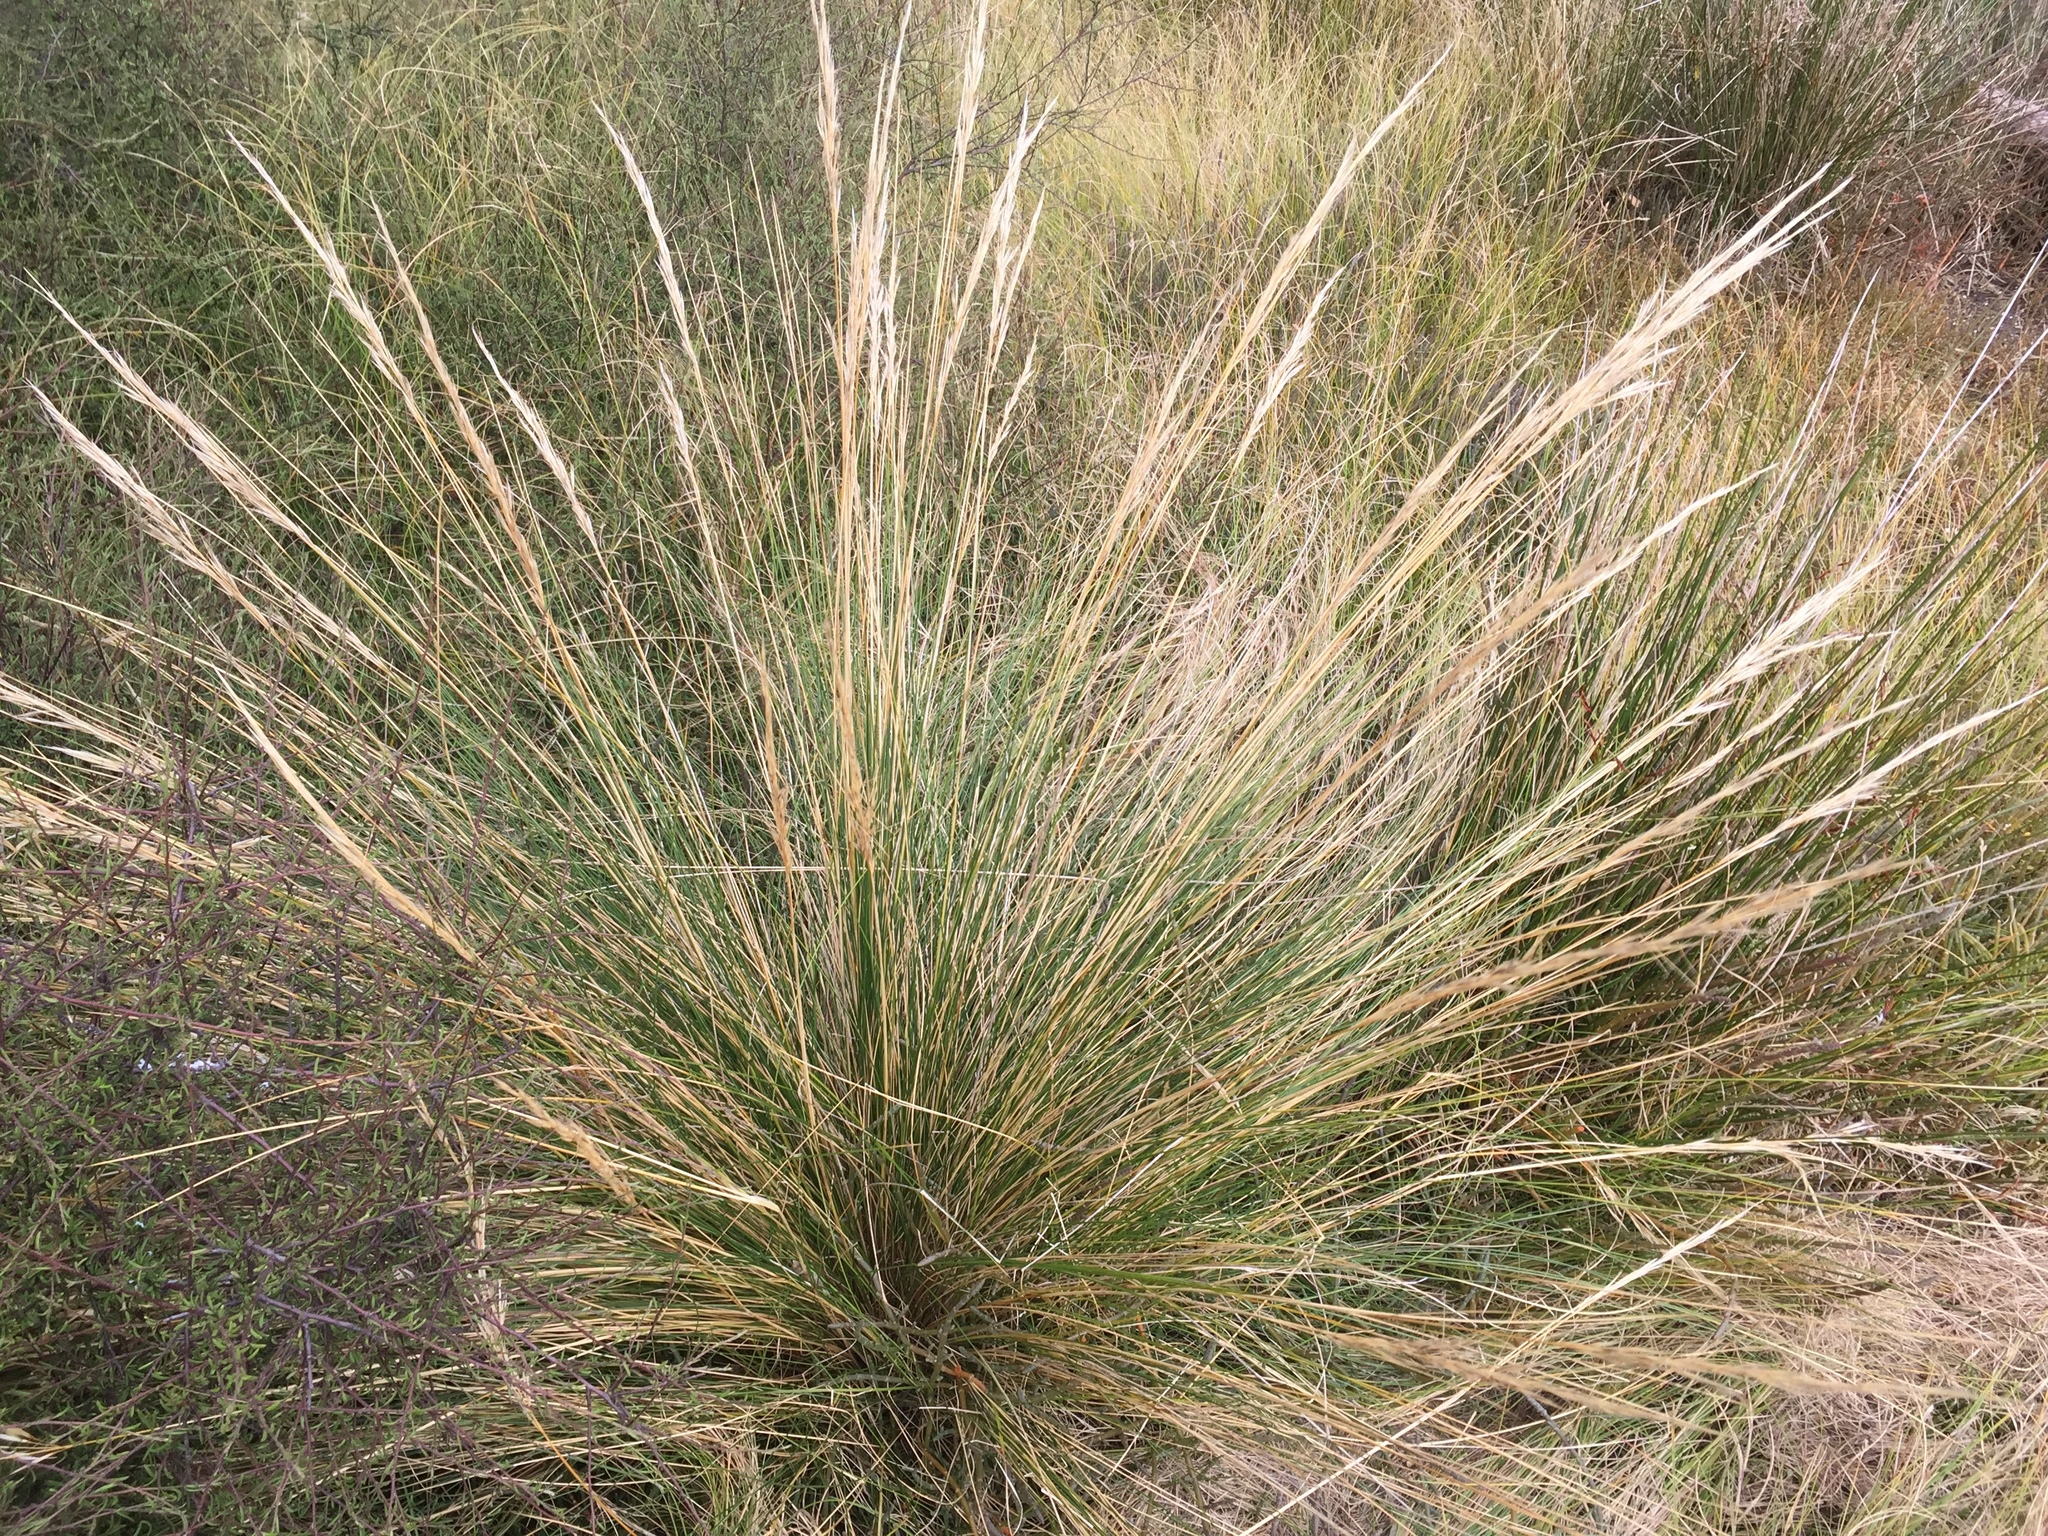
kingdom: Plantae
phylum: Tracheophyta
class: Liliopsida
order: Poales
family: Poaceae
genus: Austrostipa
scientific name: Austrostipa stipoides
